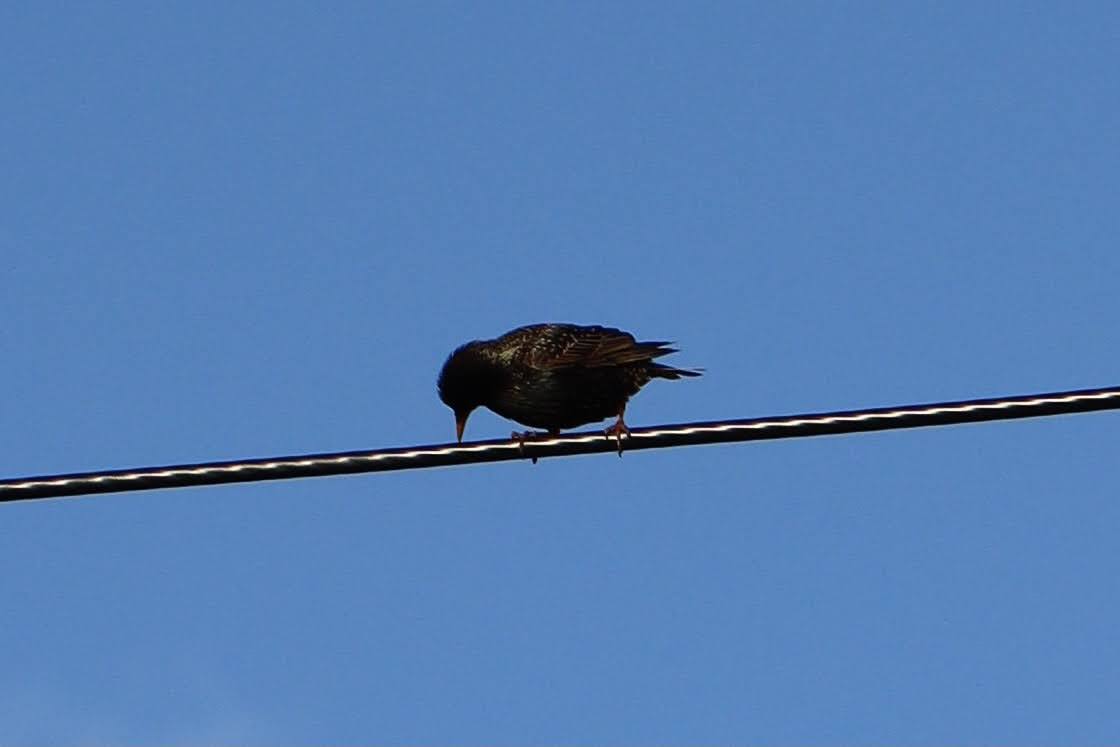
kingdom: Animalia
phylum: Chordata
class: Aves
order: Passeriformes
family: Sturnidae
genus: Sturnus
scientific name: Sturnus vulgaris
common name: Common starling
